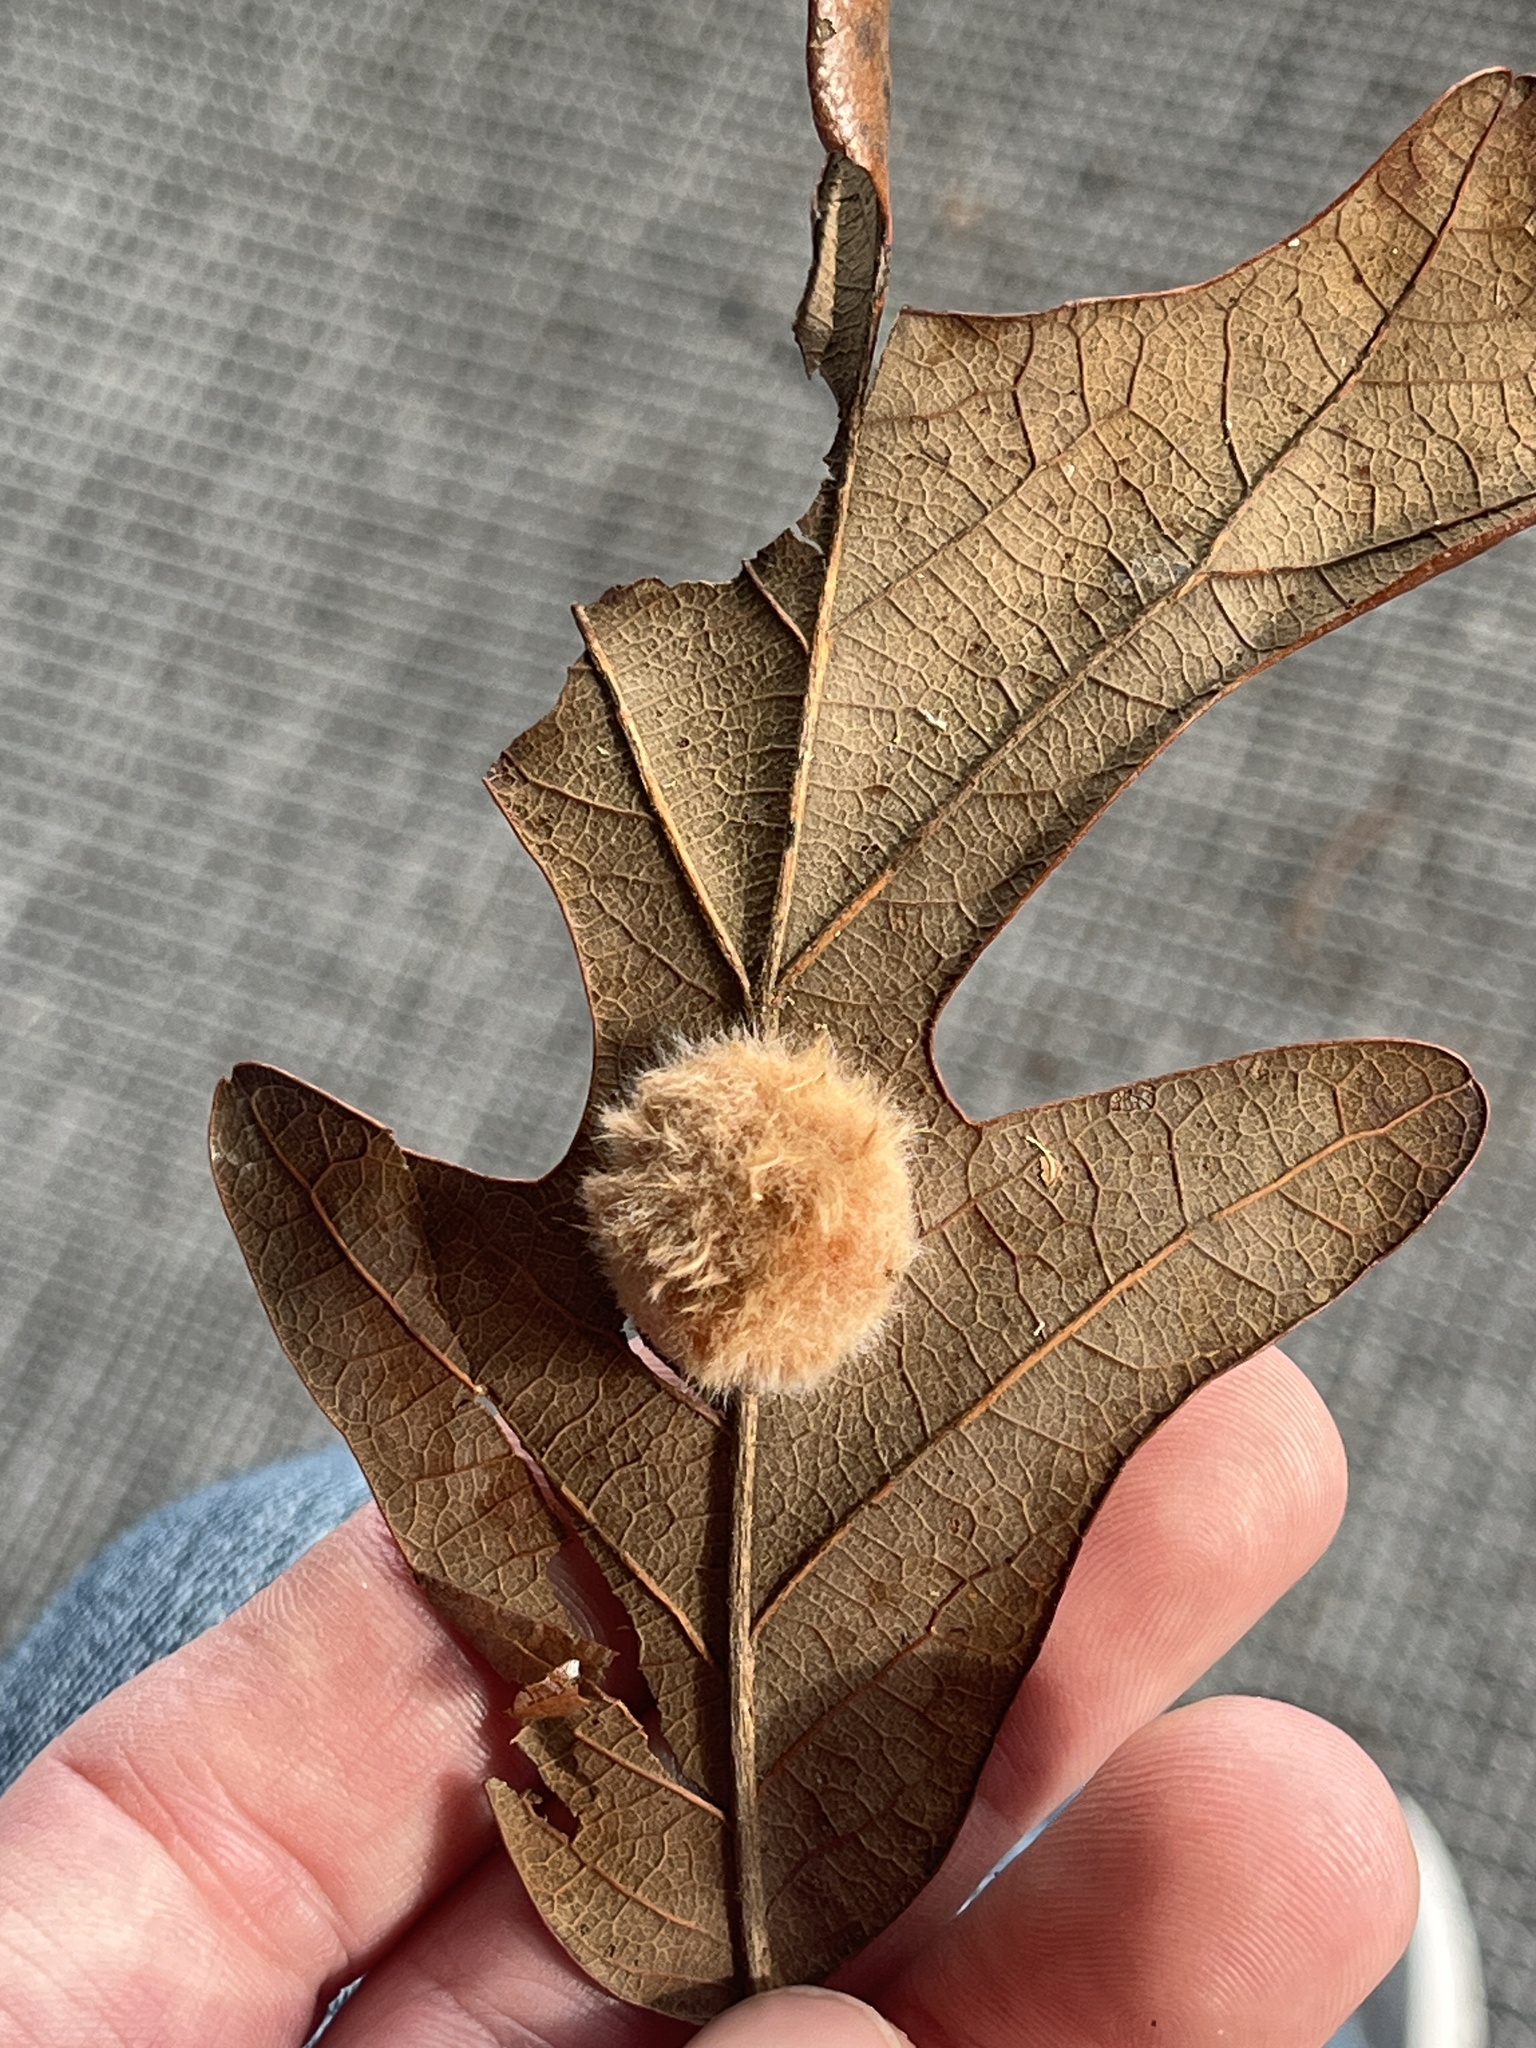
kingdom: Animalia
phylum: Arthropoda
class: Insecta
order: Hymenoptera
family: Cynipidae
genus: Andricus
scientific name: Andricus Druon pattoni
